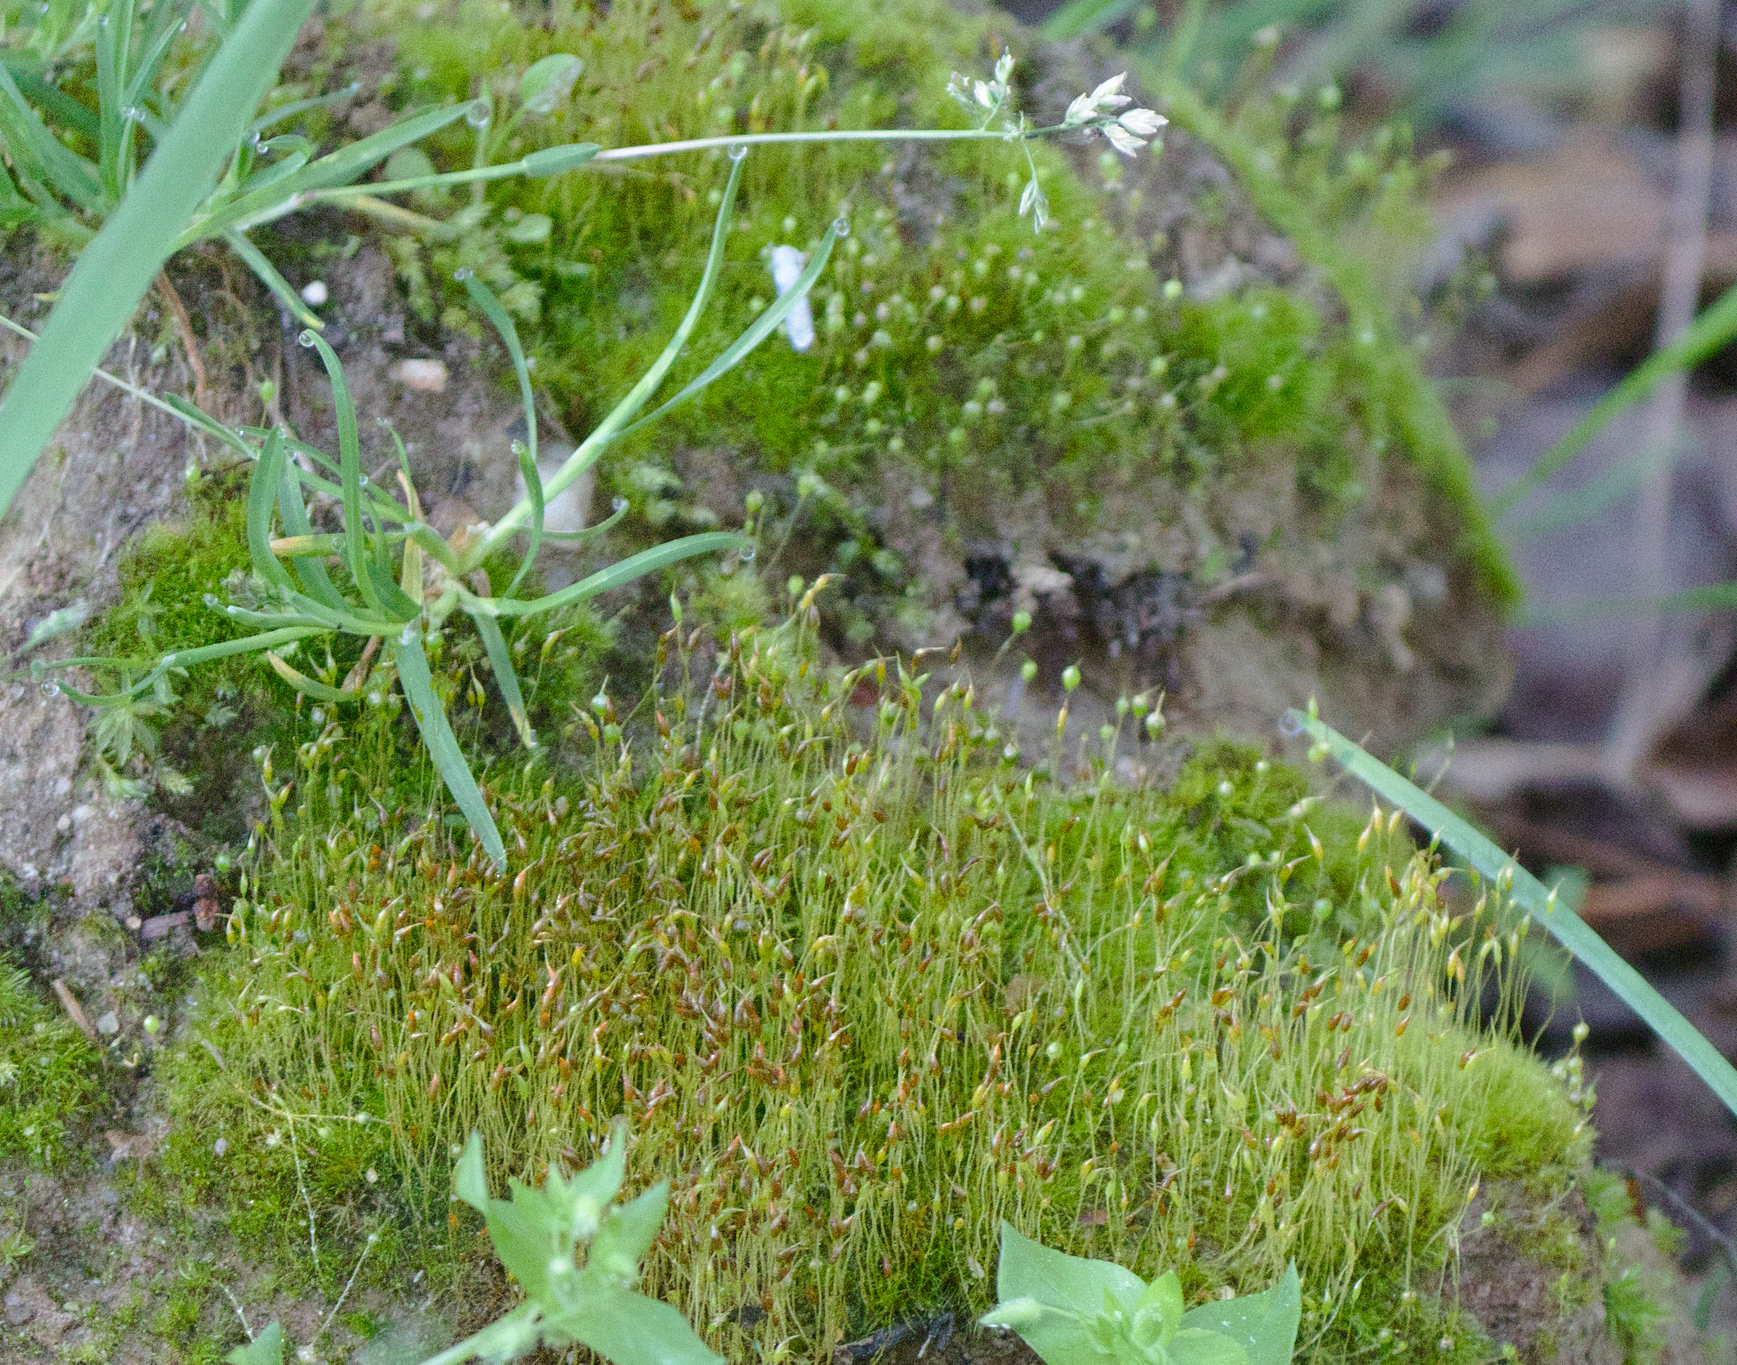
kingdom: Plantae
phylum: Bryophyta
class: Bryopsida
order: Funariales
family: Funariaceae
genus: Physcomitrium
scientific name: Physcomitrium pyriforme
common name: Common bladder-moss
